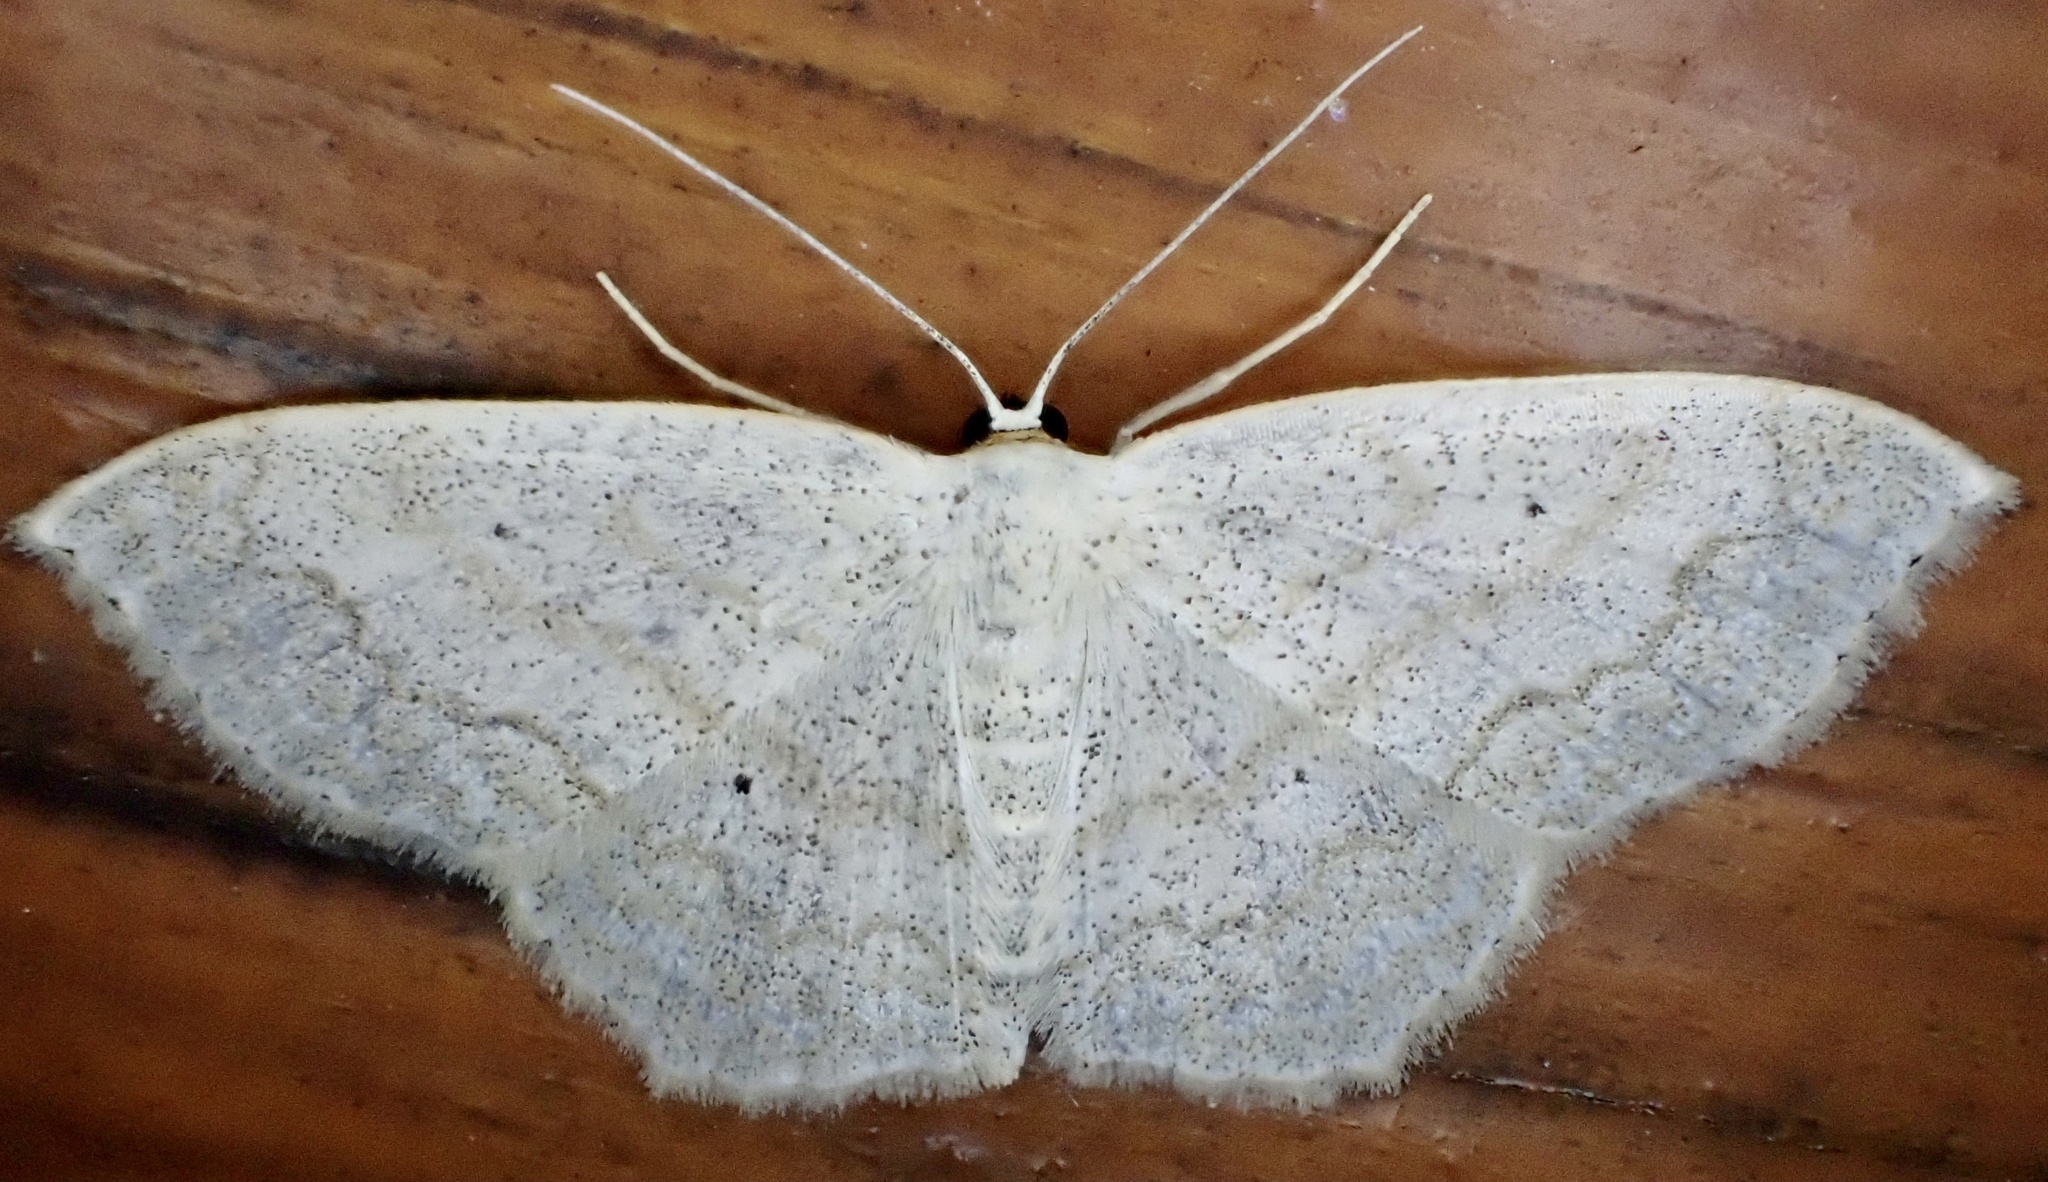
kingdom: Animalia
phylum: Arthropoda
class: Insecta
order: Lepidoptera
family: Geometridae
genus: Scopula
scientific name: Scopula limboundata
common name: Large lace border
